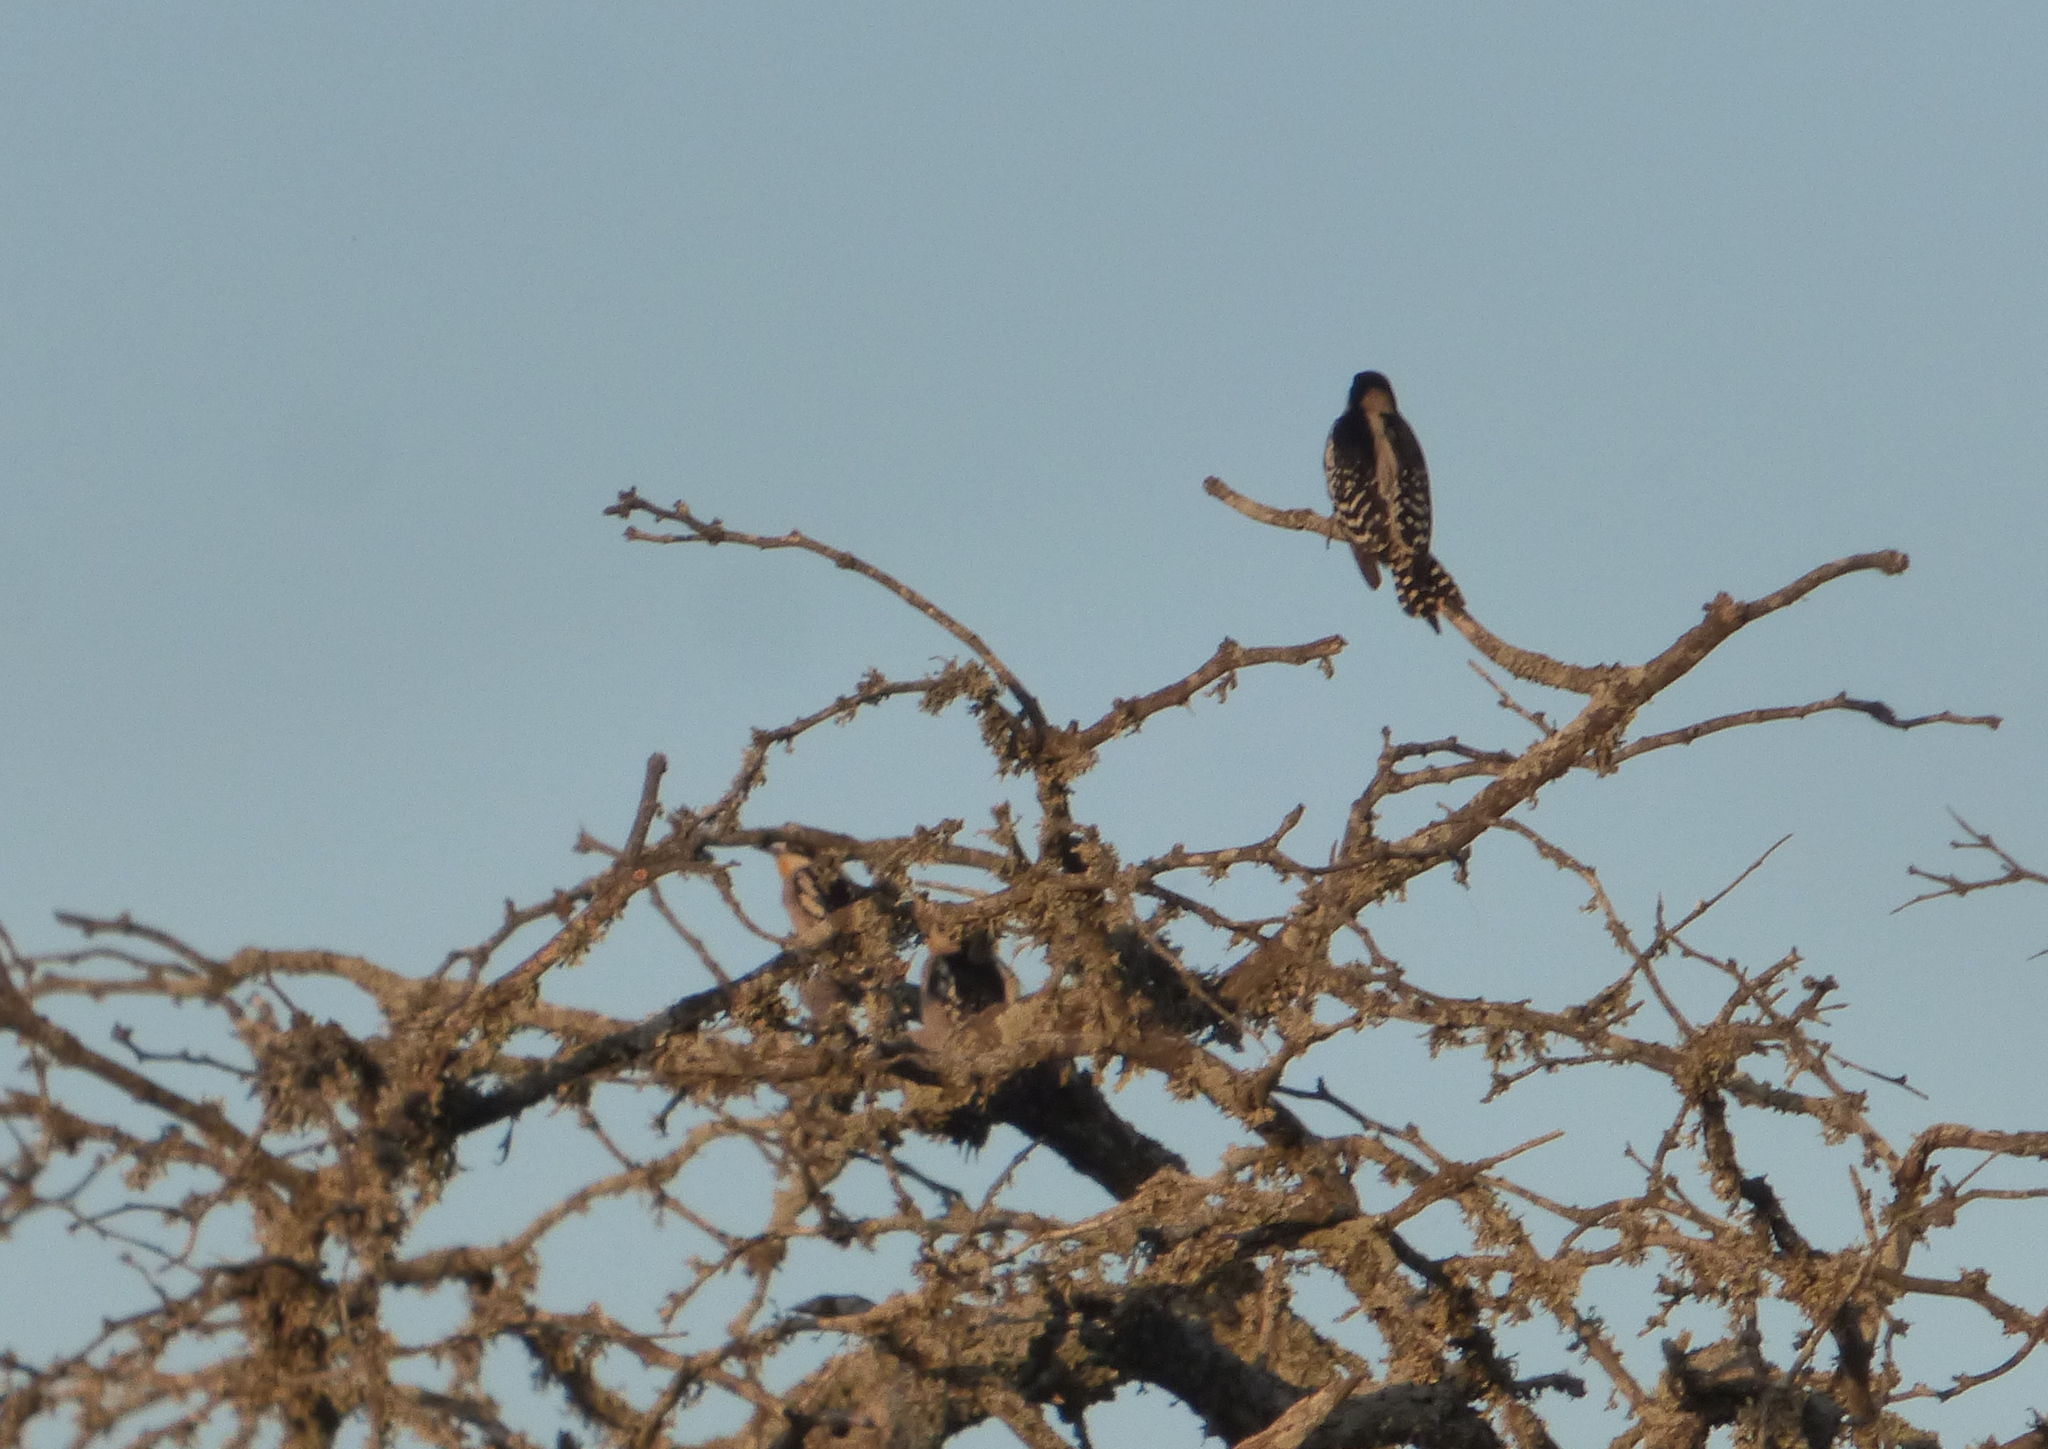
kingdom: Animalia
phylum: Chordata
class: Aves
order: Piciformes
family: Picidae
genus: Melanerpes
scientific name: Melanerpes cactorum
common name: White-fronted woodpecker
